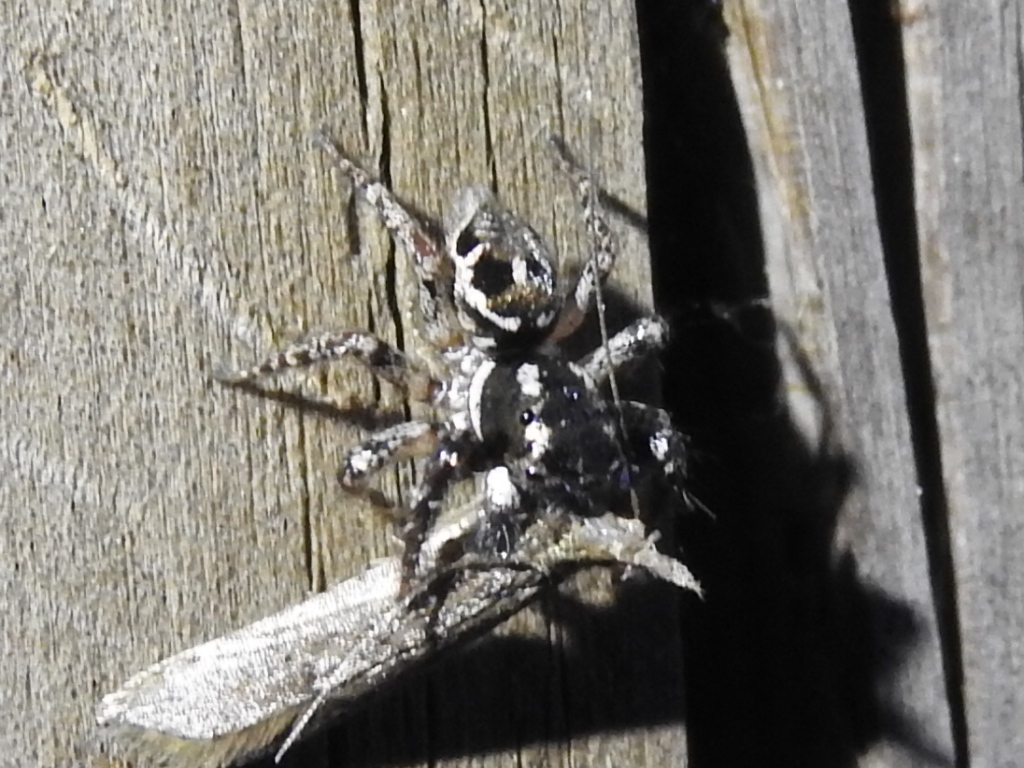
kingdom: Animalia
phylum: Arthropoda
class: Arachnida
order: Araneae
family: Salticidae
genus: Anasaitis
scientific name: Anasaitis canosa
